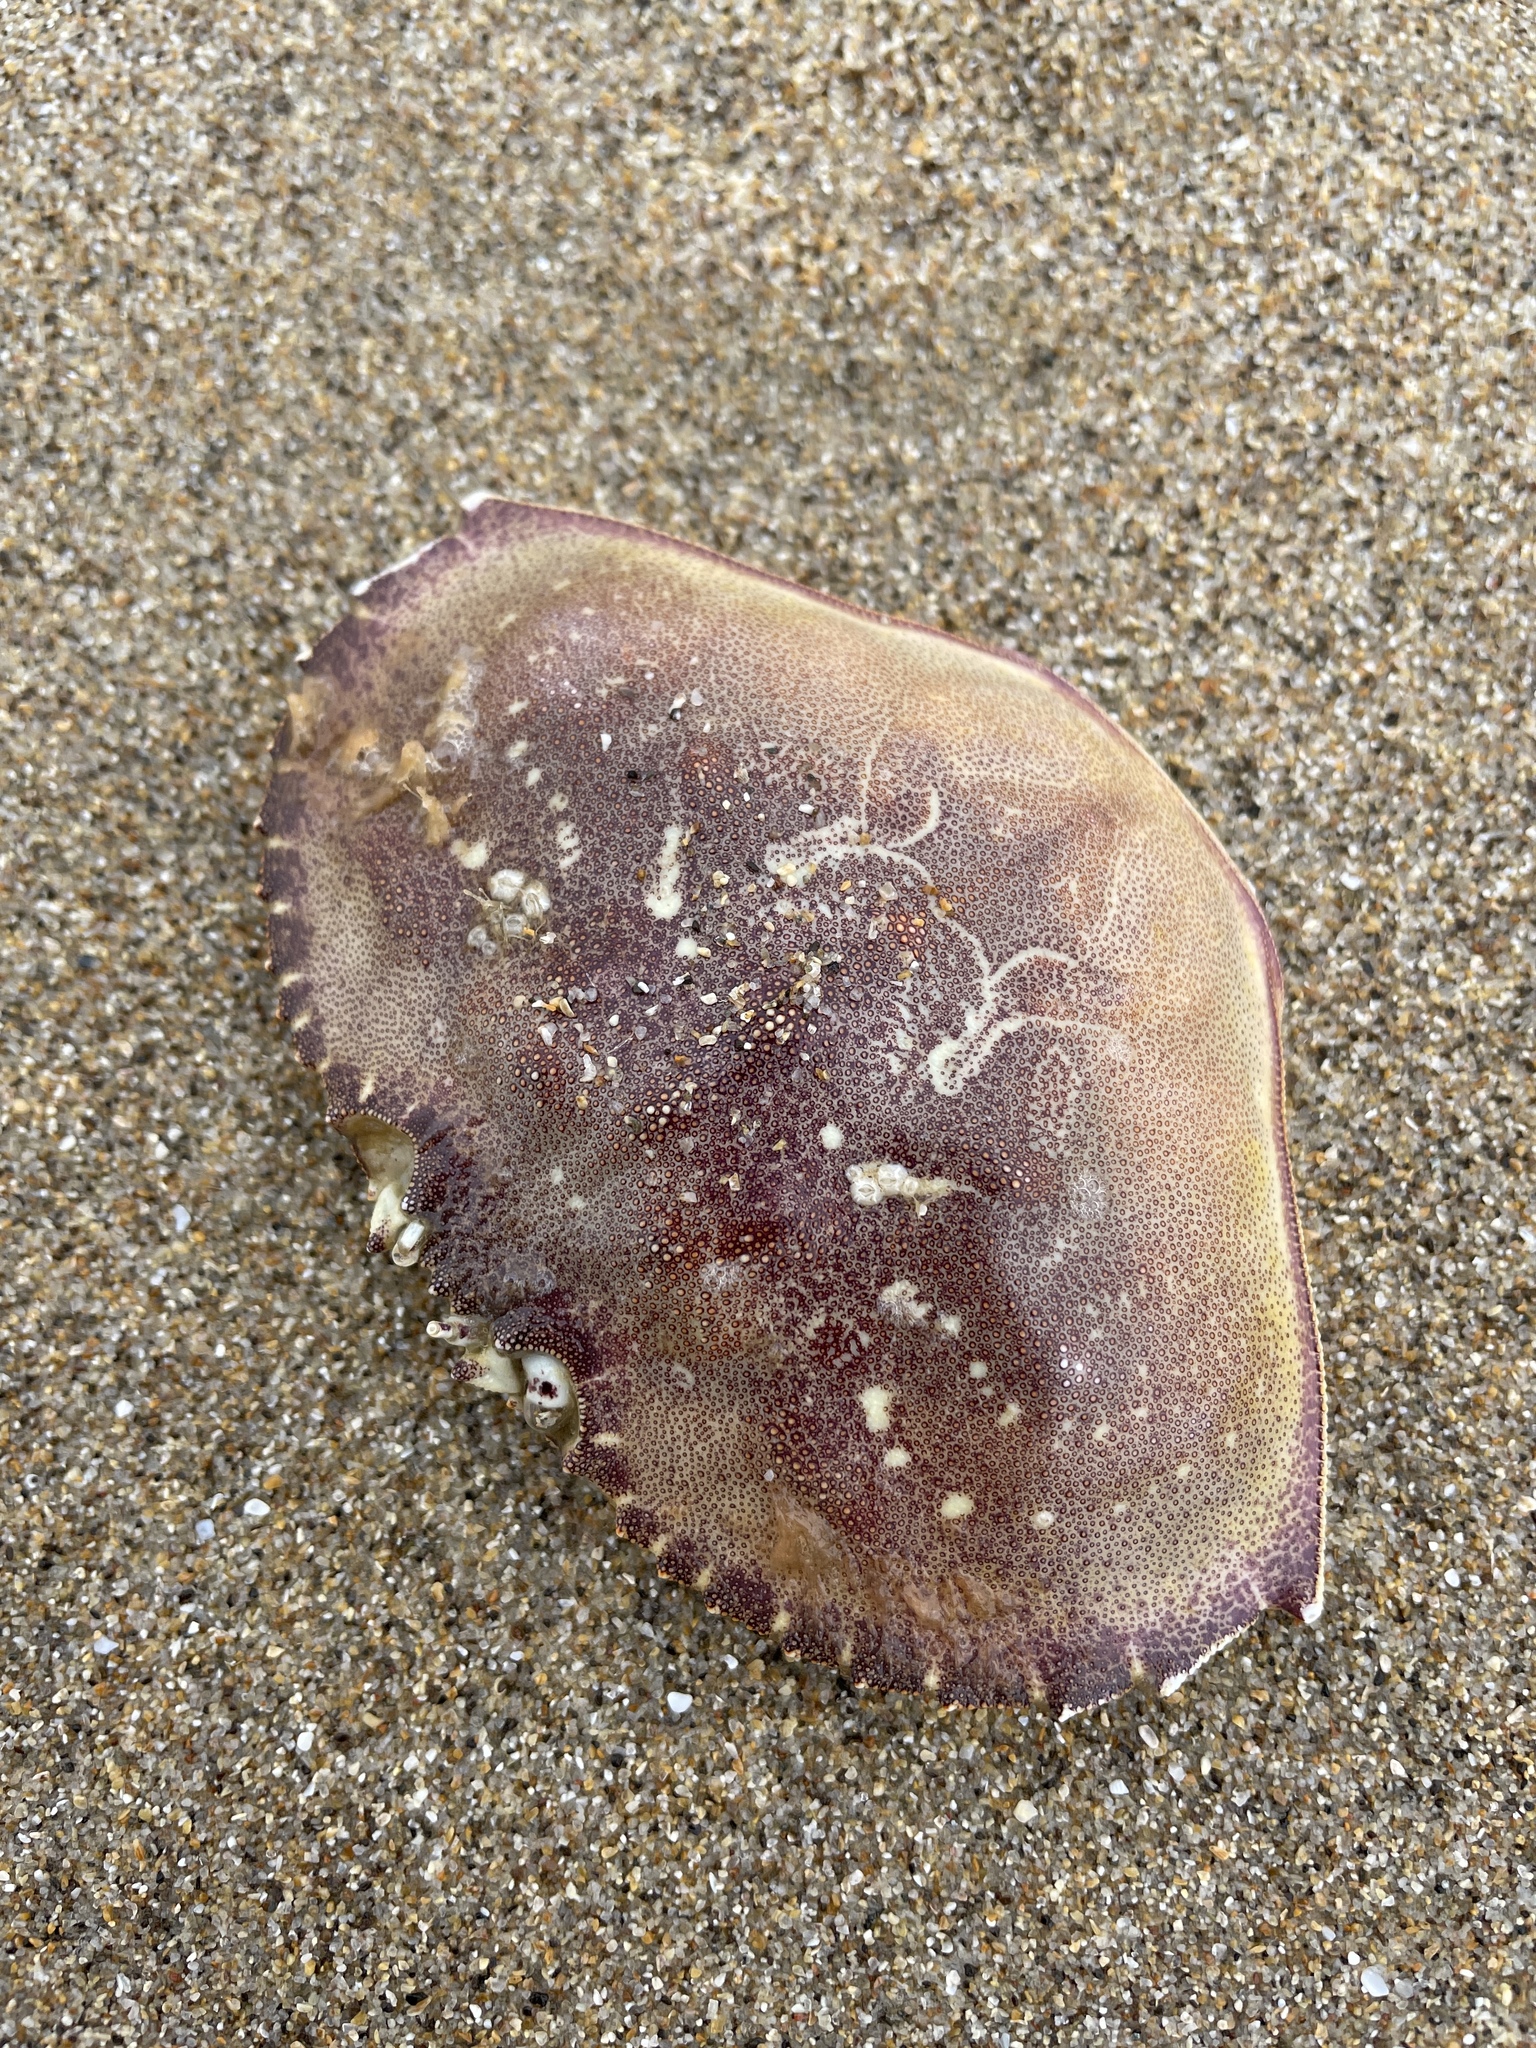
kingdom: Animalia
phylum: Arthropoda
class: Malacostraca
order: Decapoda
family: Cancridae
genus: Metacarcinus
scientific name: Metacarcinus magister
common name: Californian crab
